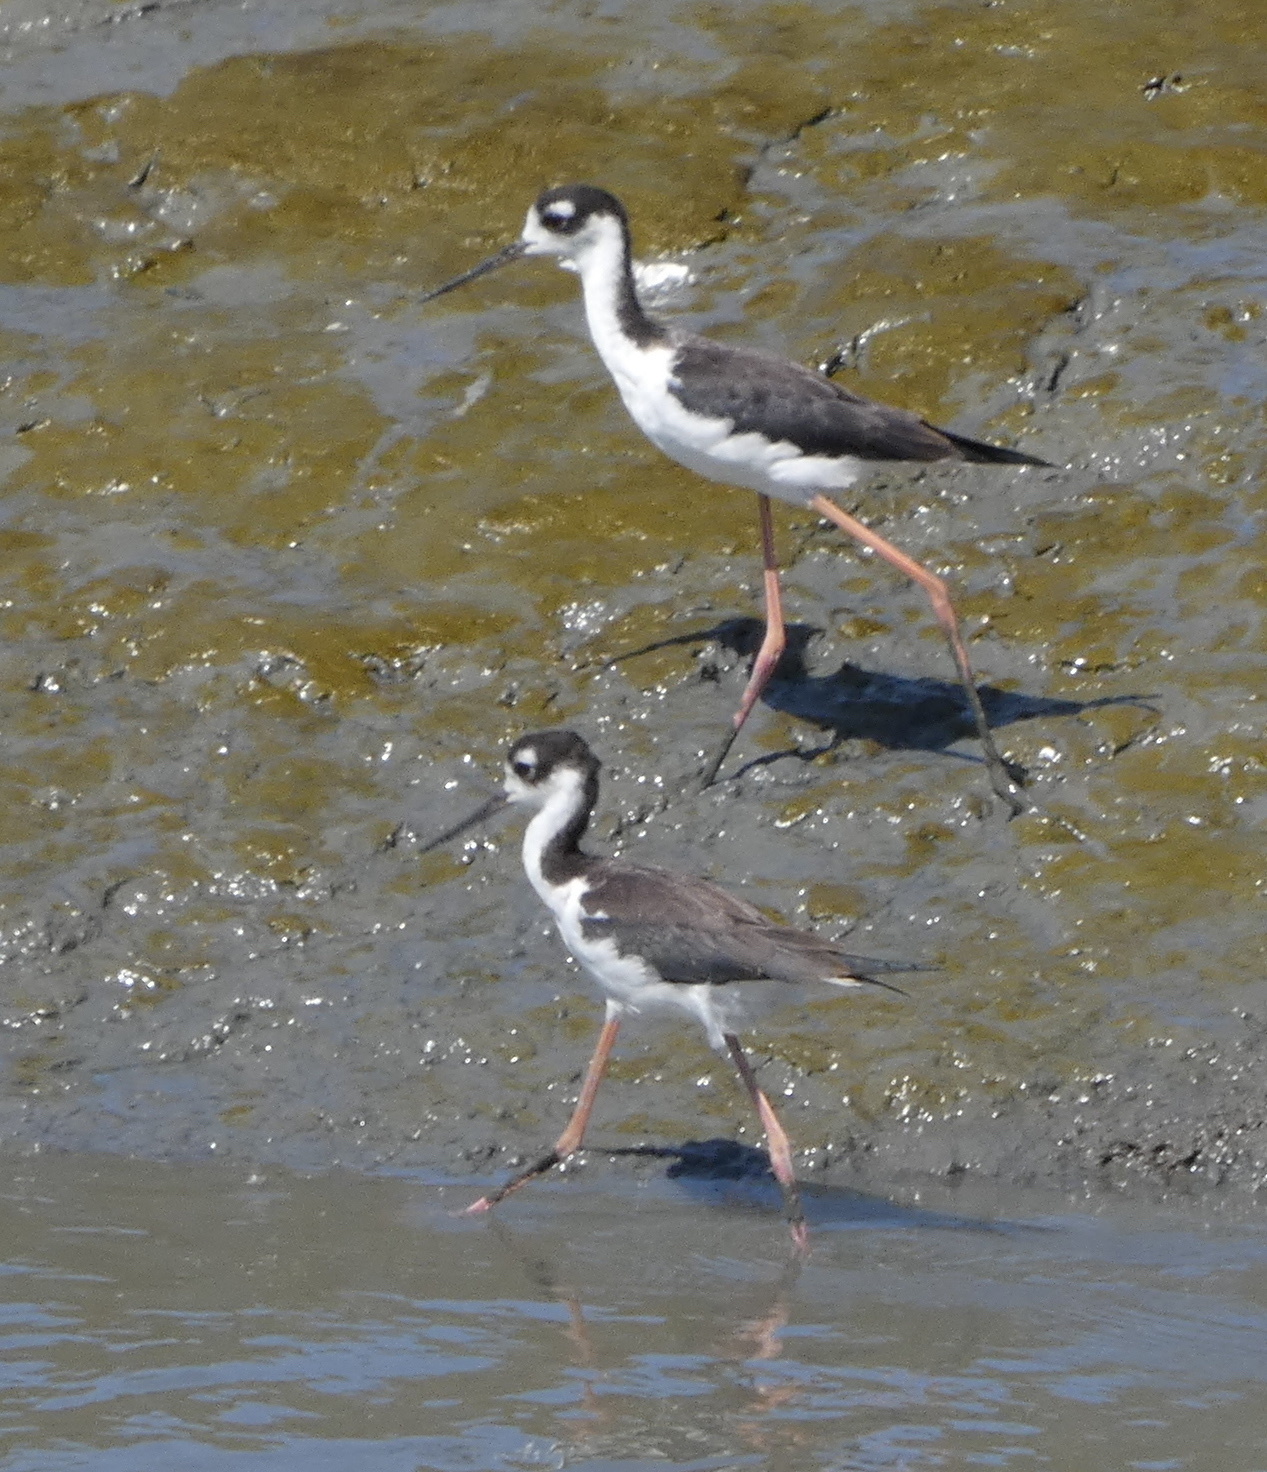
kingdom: Animalia
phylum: Chordata
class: Aves
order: Charadriiformes
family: Recurvirostridae
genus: Himantopus
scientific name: Himantopus mexicanus
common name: Black-necked stilt
